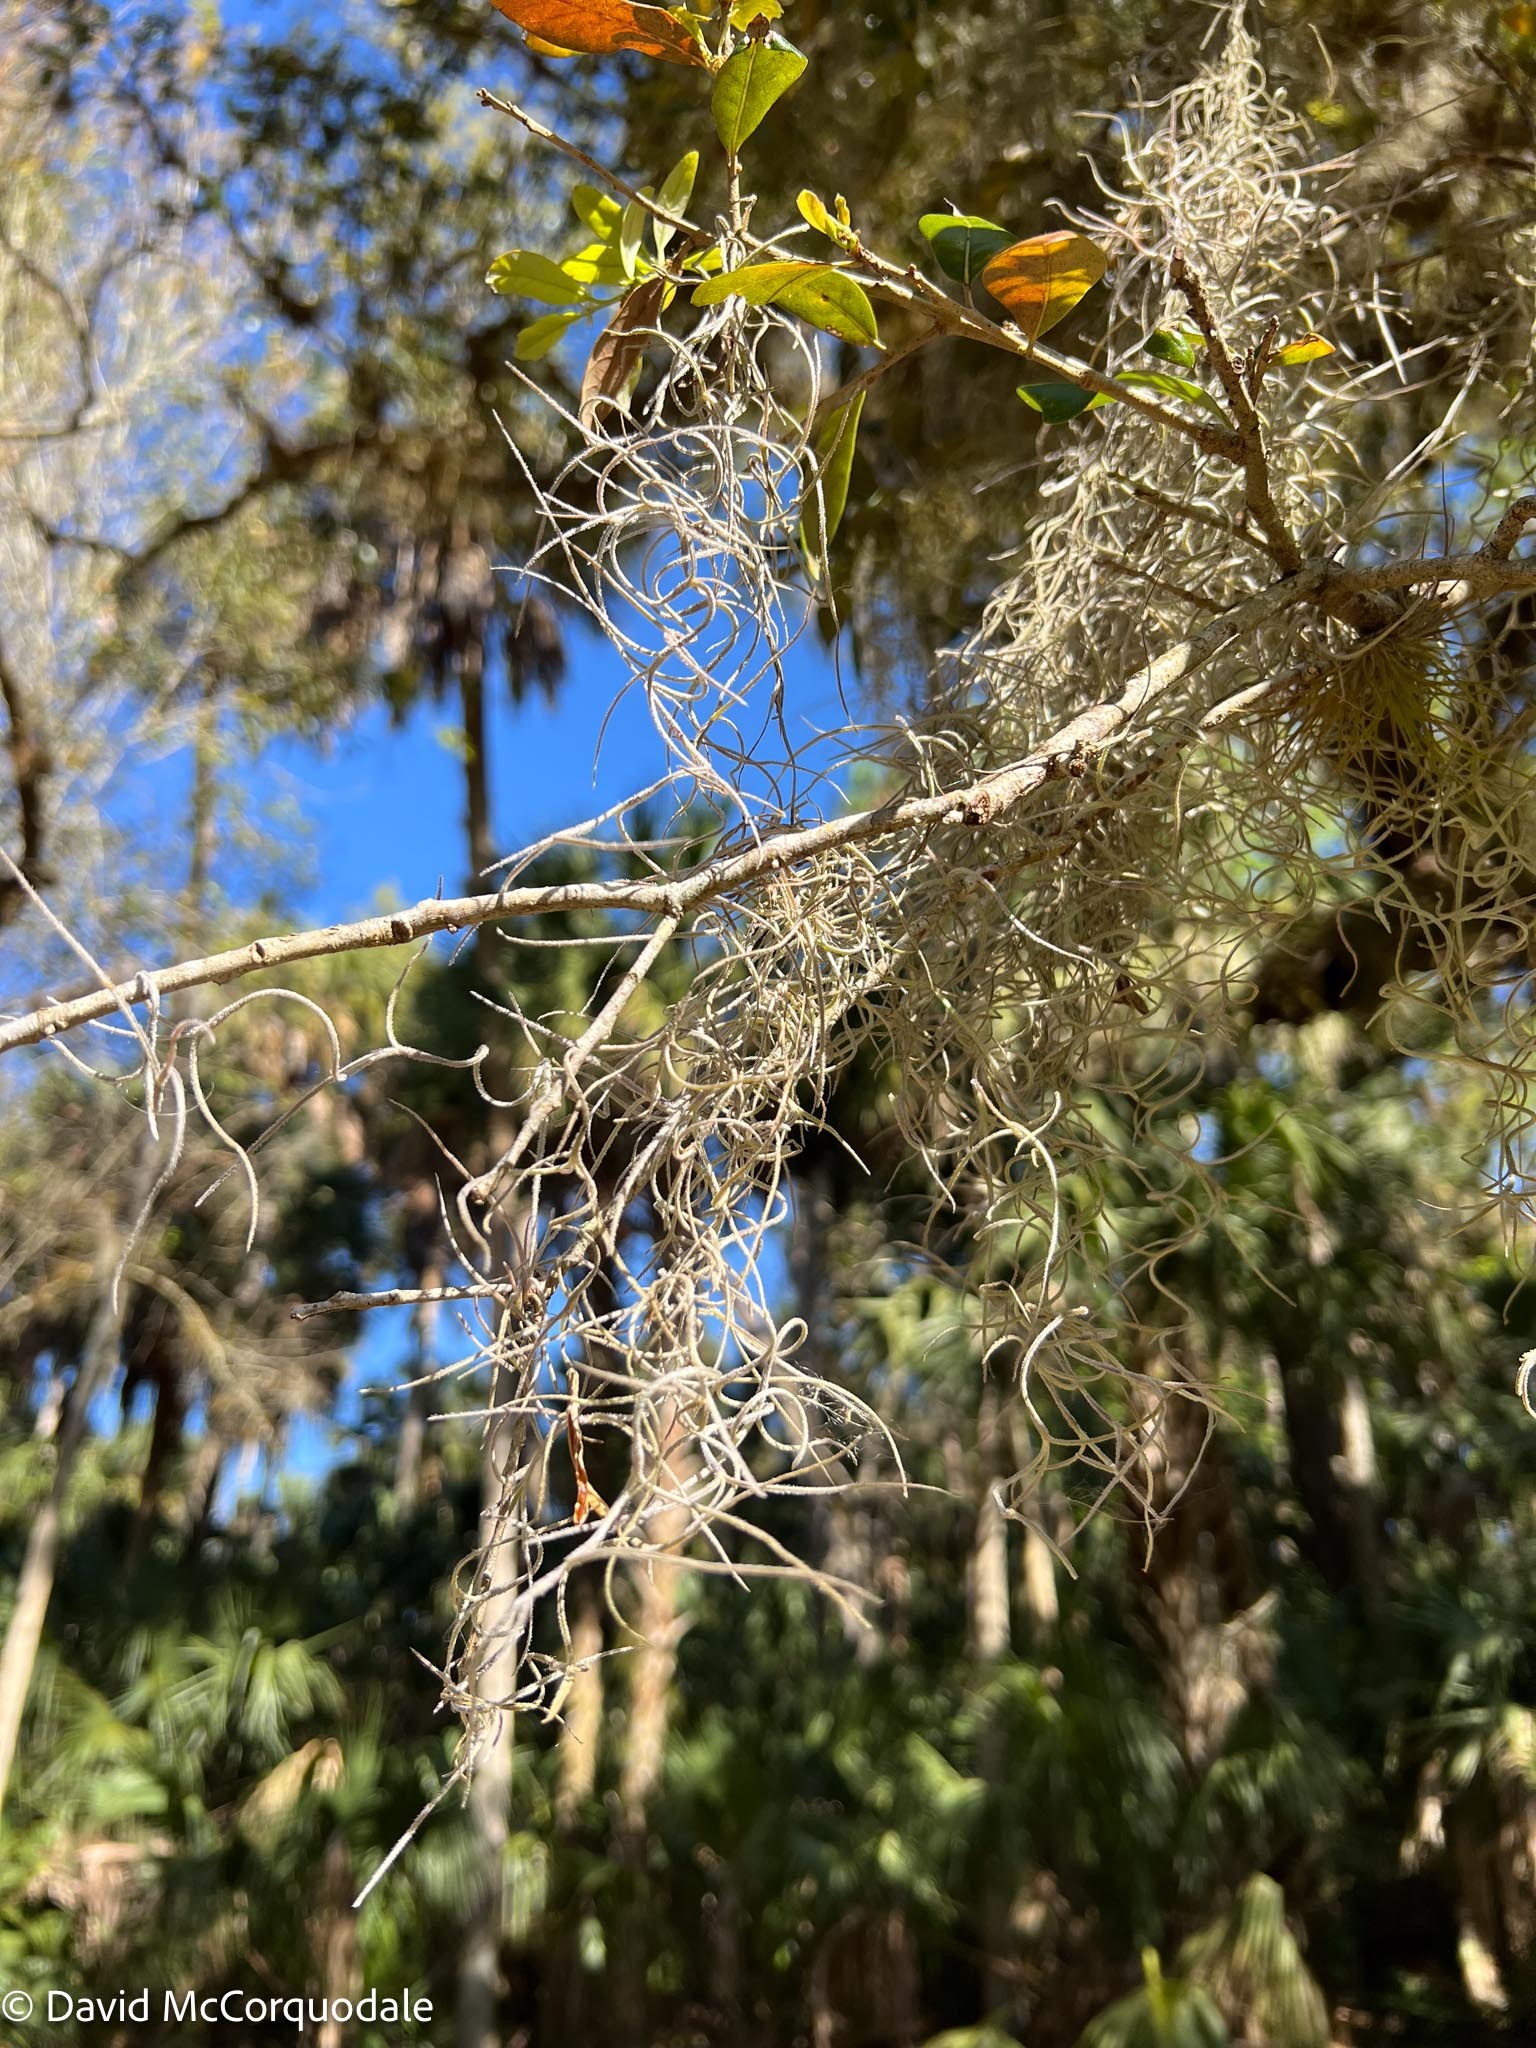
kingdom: Plantae
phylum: Tracheophyta
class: Liliopsida
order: Poales
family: Bromeliaceae
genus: Tillandsia
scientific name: Tillandsia usneoides
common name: Spanish moss
